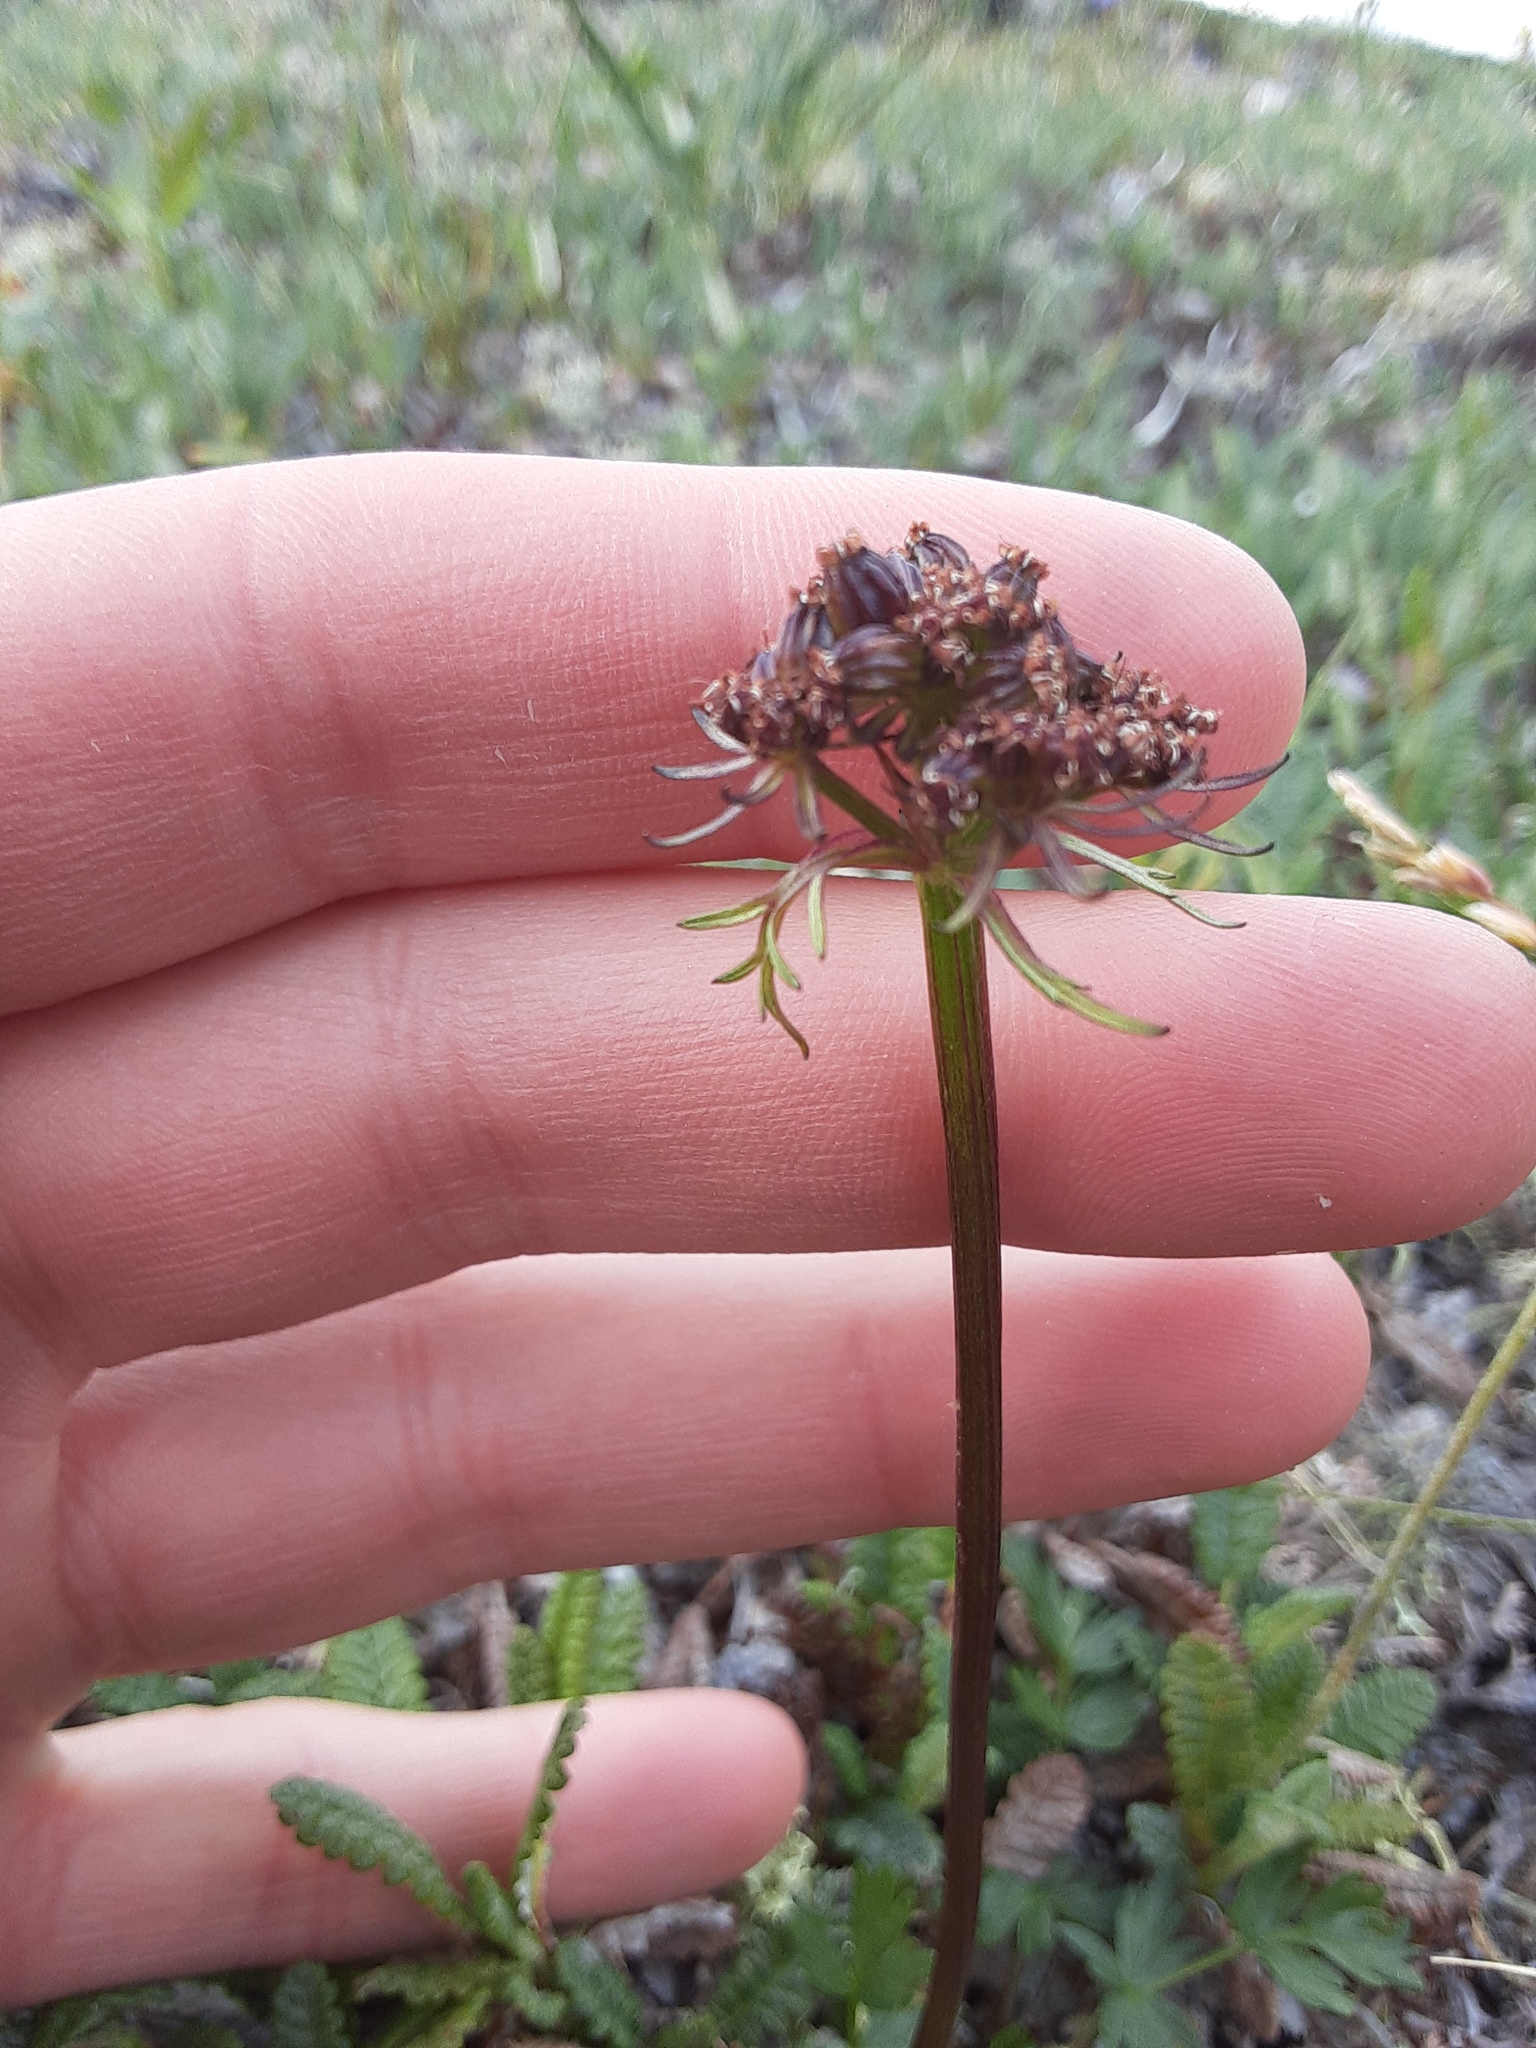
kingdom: Plantae
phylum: Tracheophyta
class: Magnoliopsida
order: Apiales
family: Apiaceae
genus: Orumbella
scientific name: Orumbella macounii
